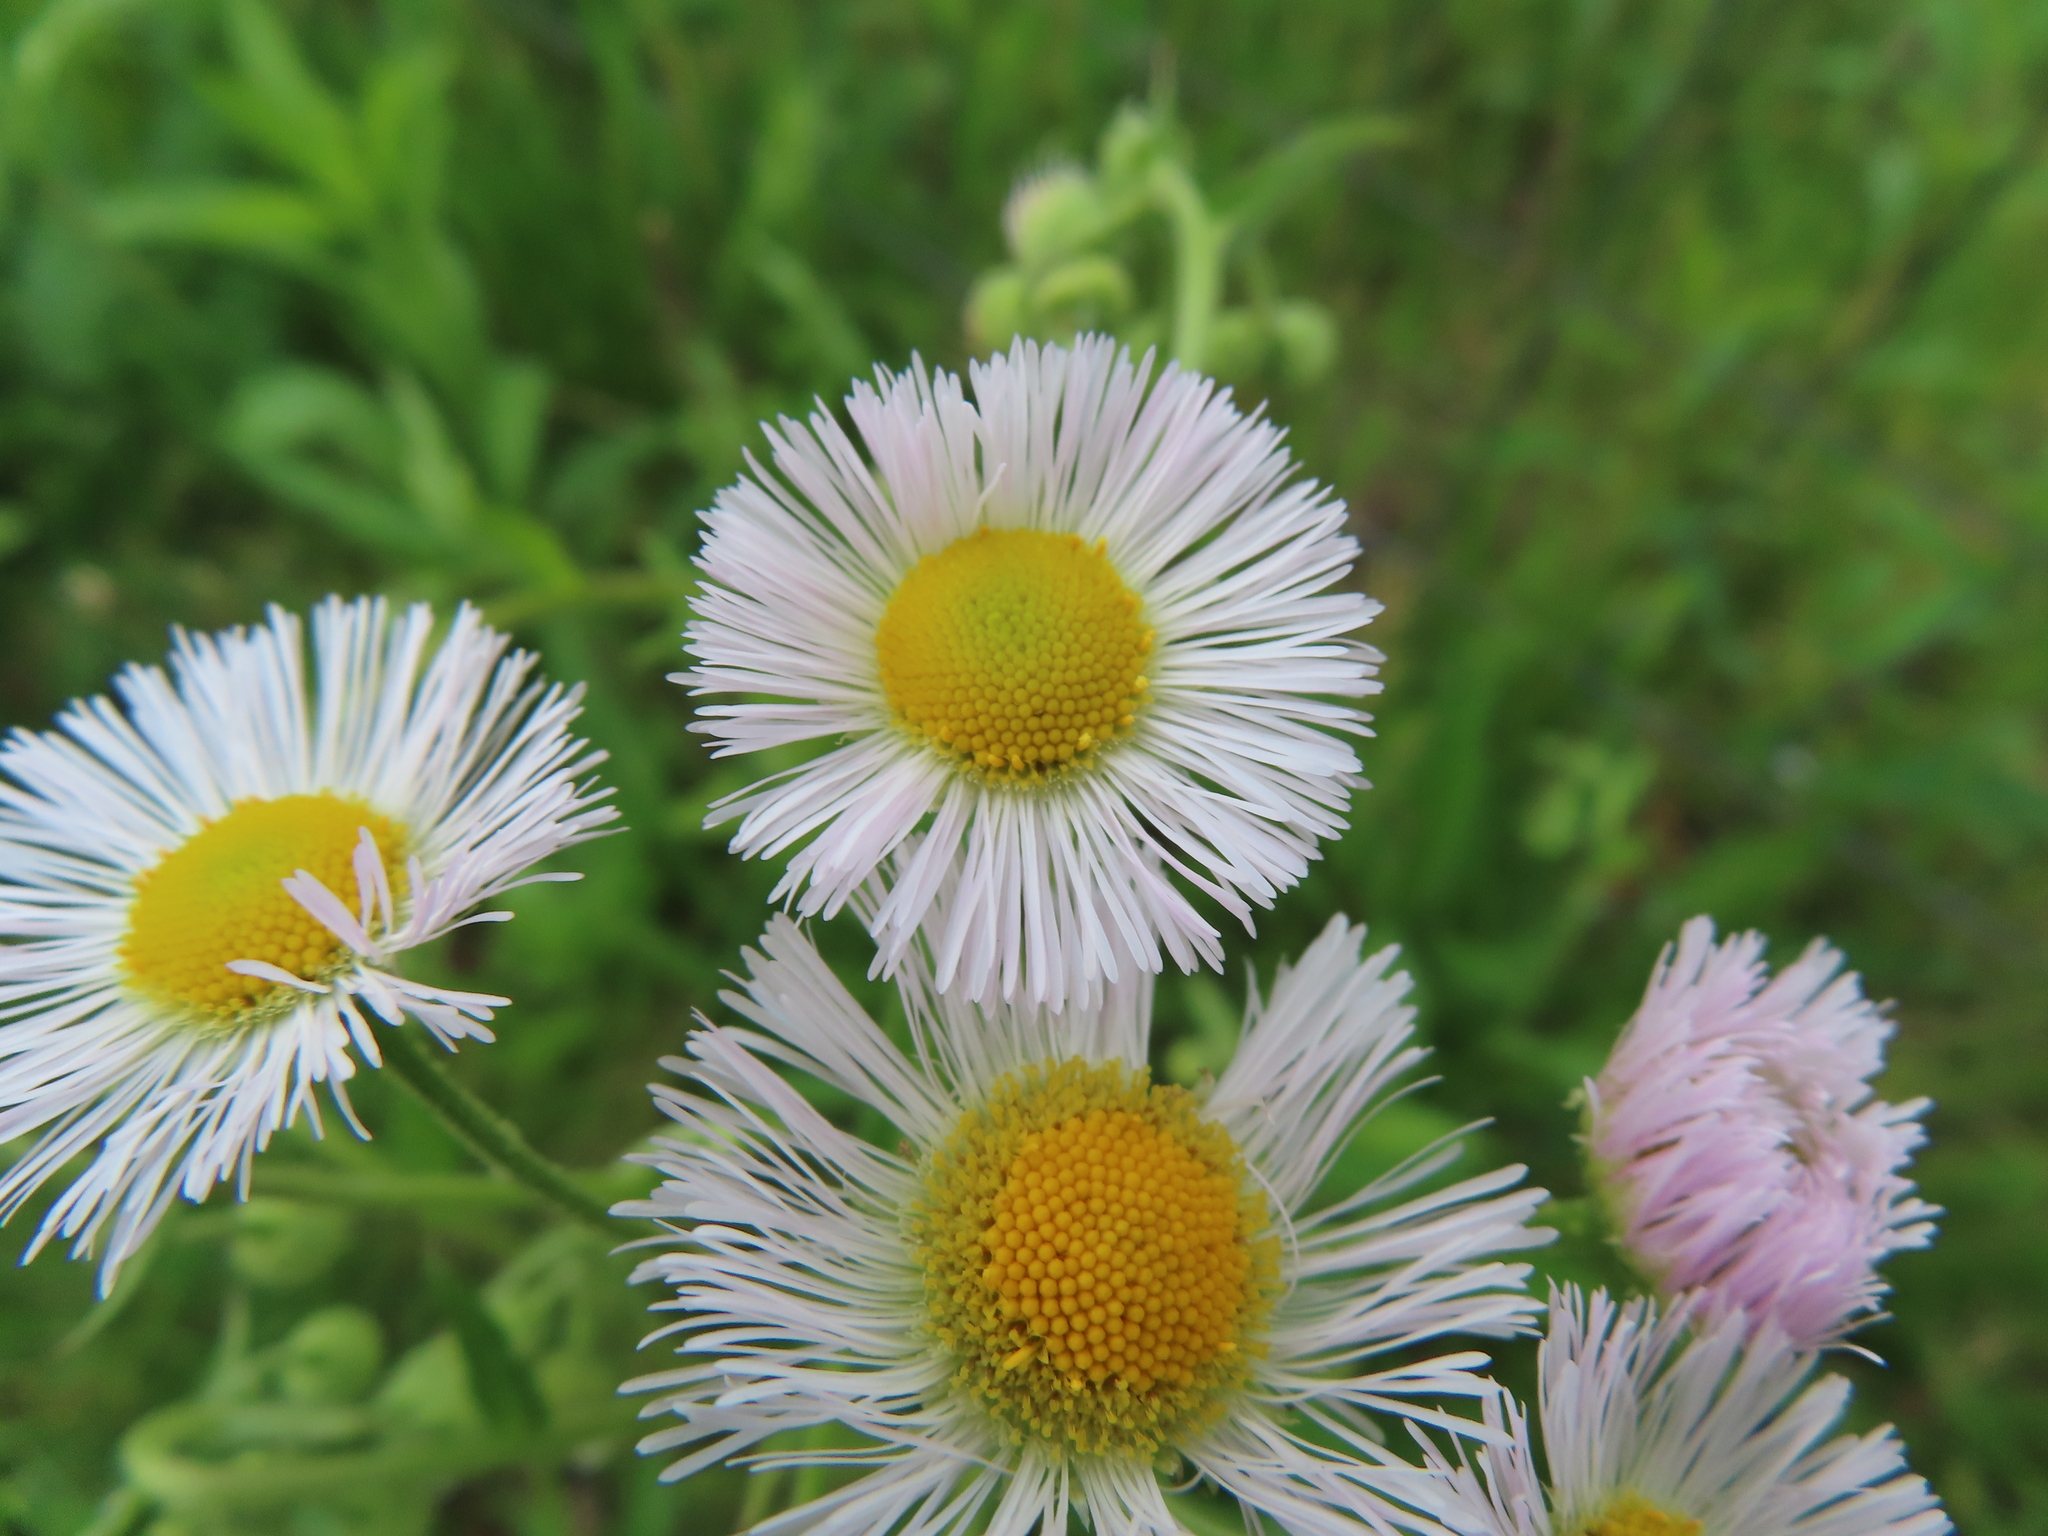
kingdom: Plantae
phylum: Tracheophyta
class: Magnoliopsida
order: Asterales
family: Asteraceae
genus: Erigeron
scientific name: Erigeron philadelphicus
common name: Robin's-plantain
